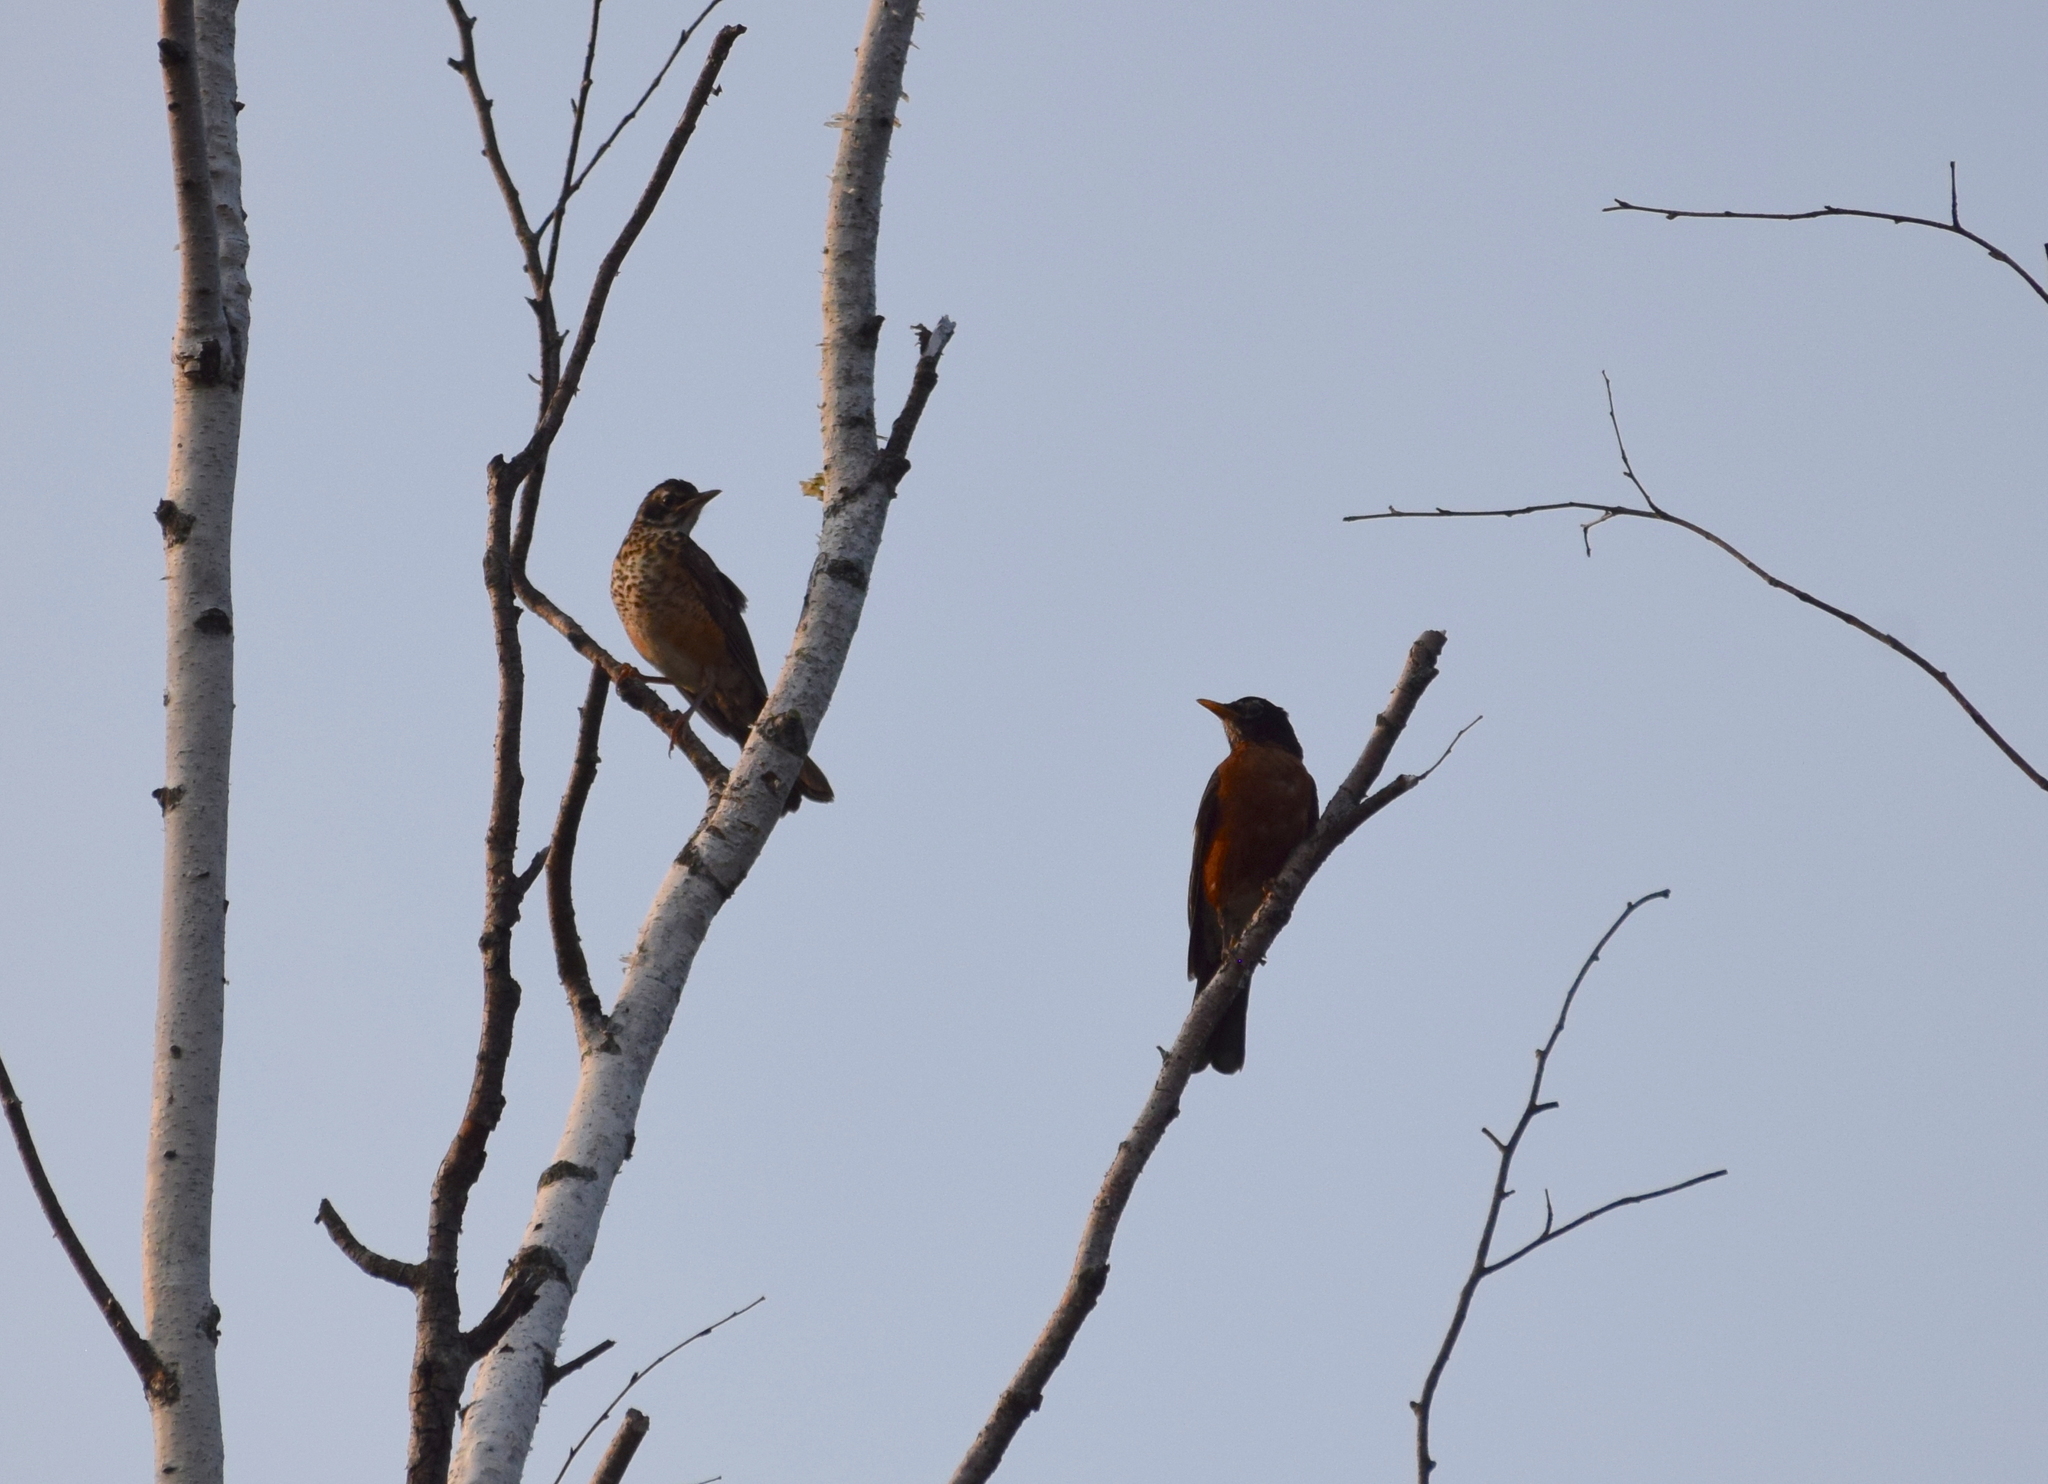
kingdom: Animalia
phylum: Chordata
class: Aves
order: Passeriformes
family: Turdidae
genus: Turdus
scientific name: Turdus migratorius
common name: American robin
